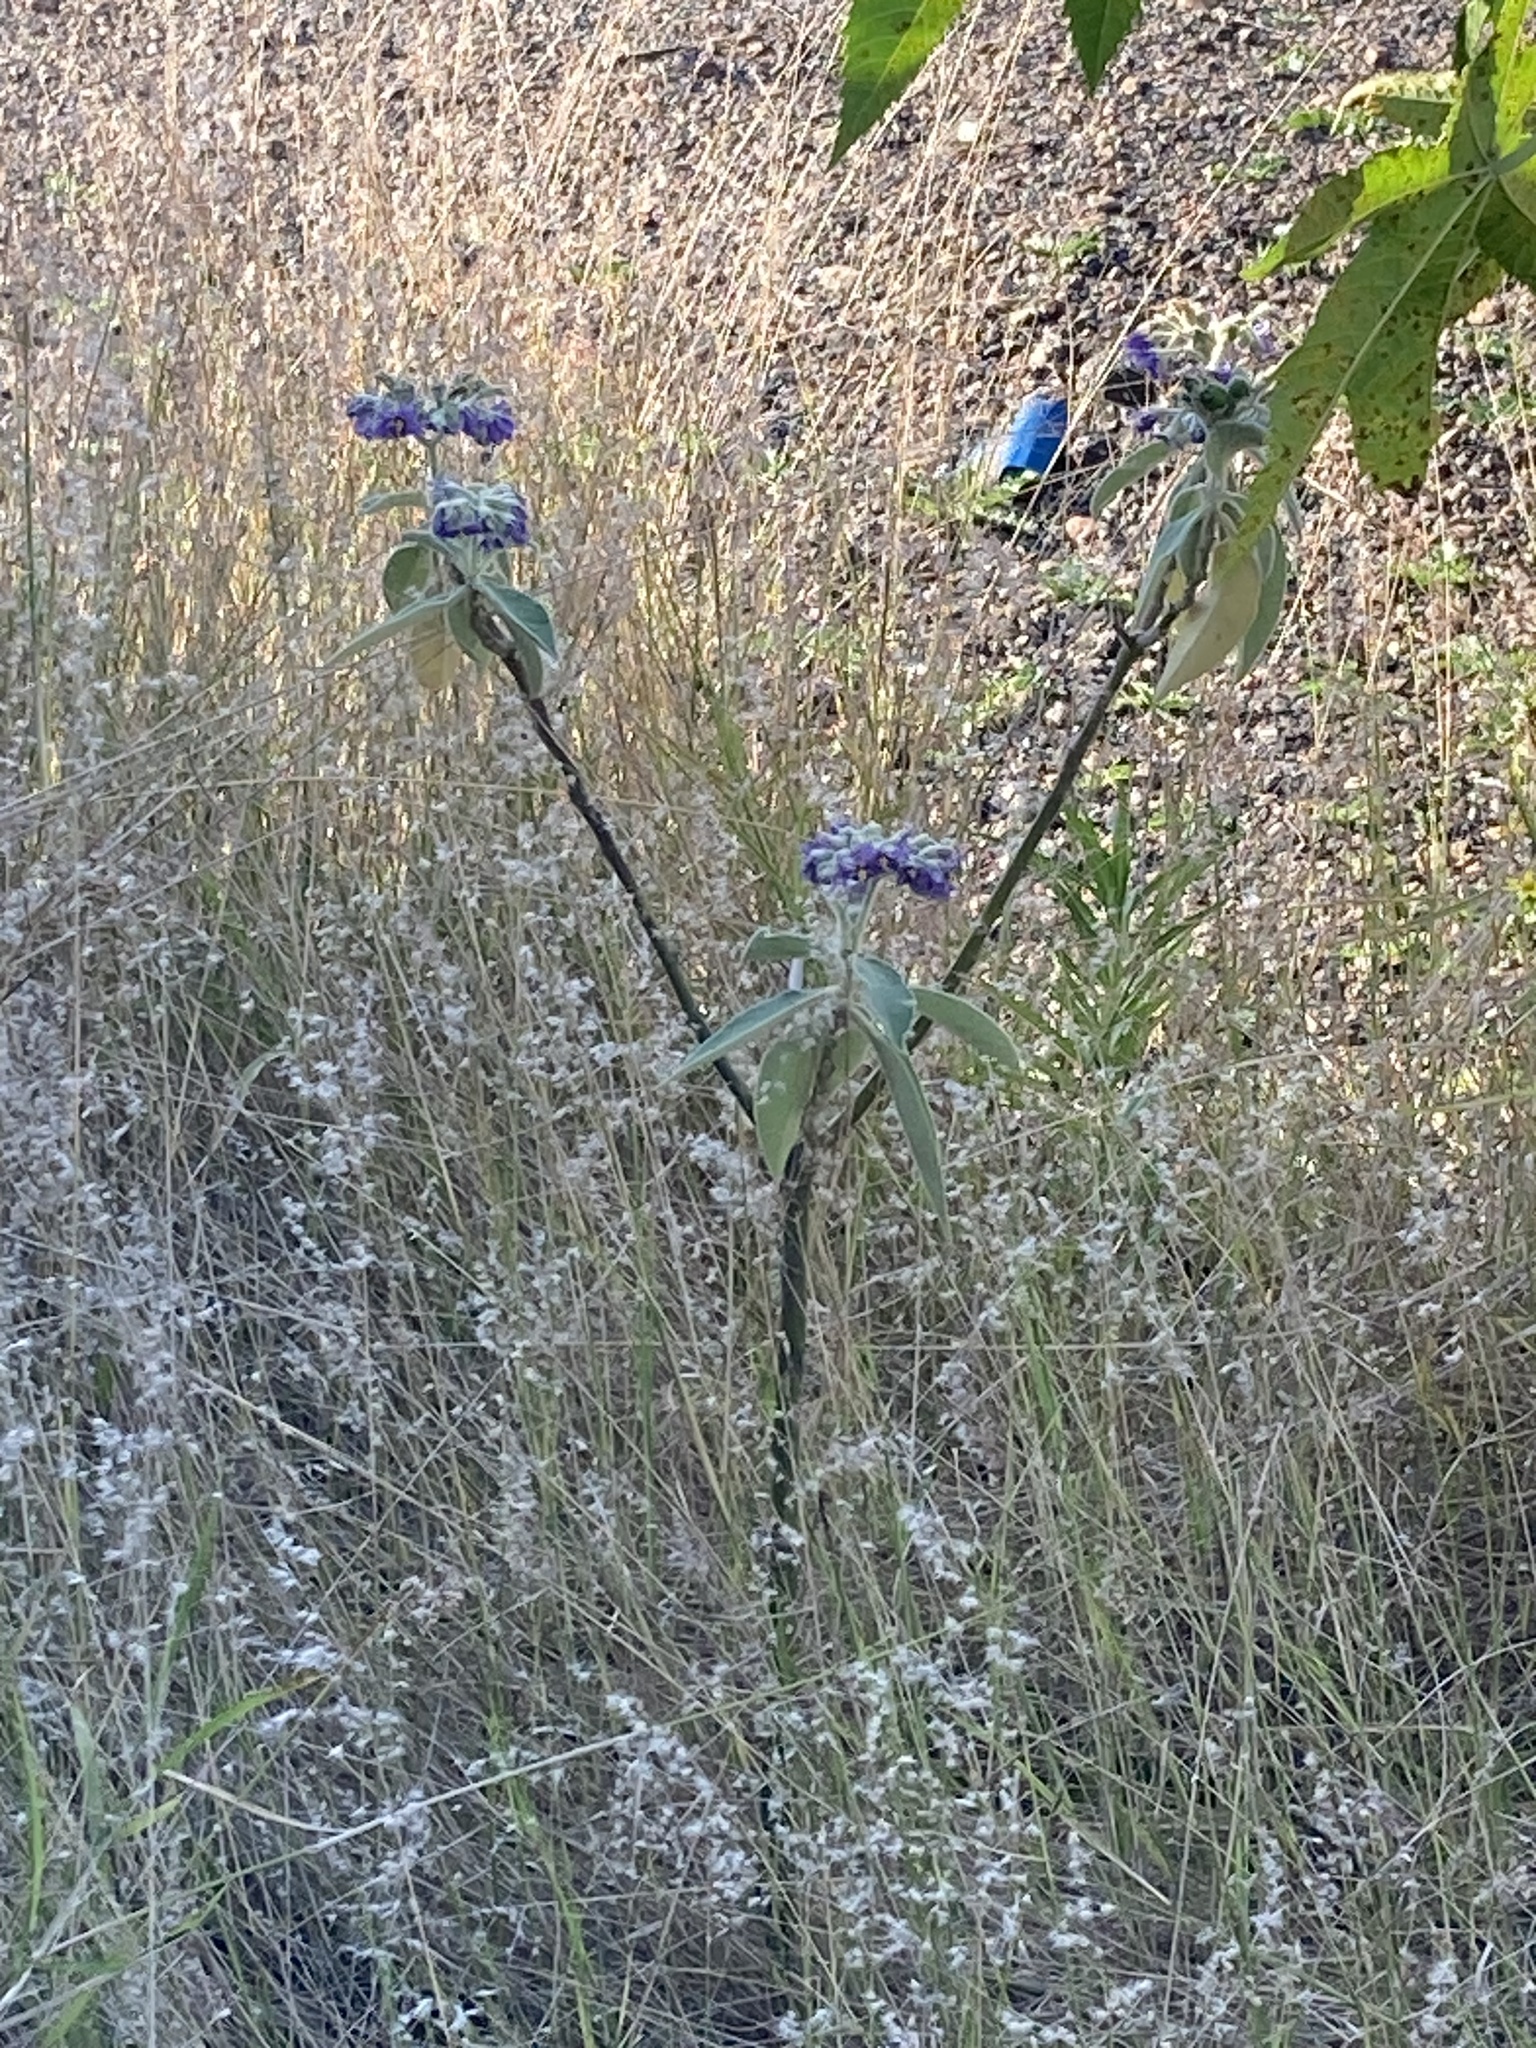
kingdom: Plantae
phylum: Tracheophyta
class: Magnoliopsida
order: Solanales
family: Solanaceae
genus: Solanum
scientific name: Solanum mauritianum
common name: Earleaf nightshade
